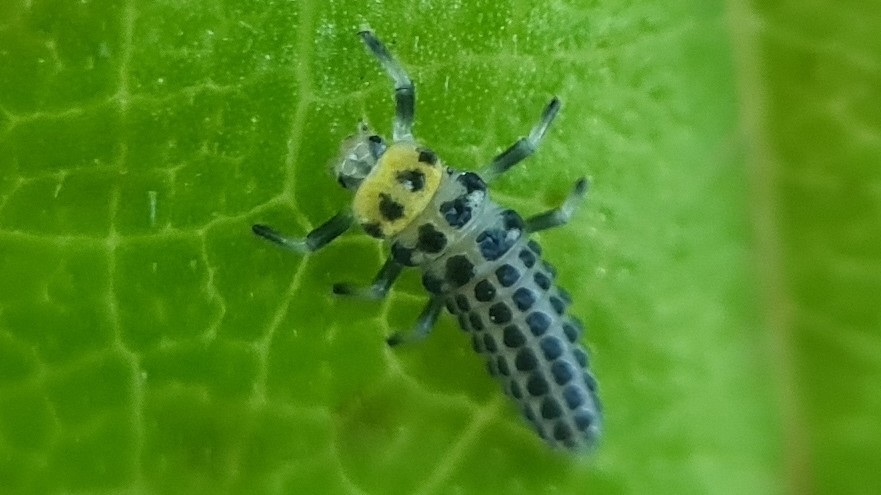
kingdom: Animalia
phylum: Arthropoda
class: Insecta
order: Coleoptera
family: Coccinellidae
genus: Illeis
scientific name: Illeis galbula
